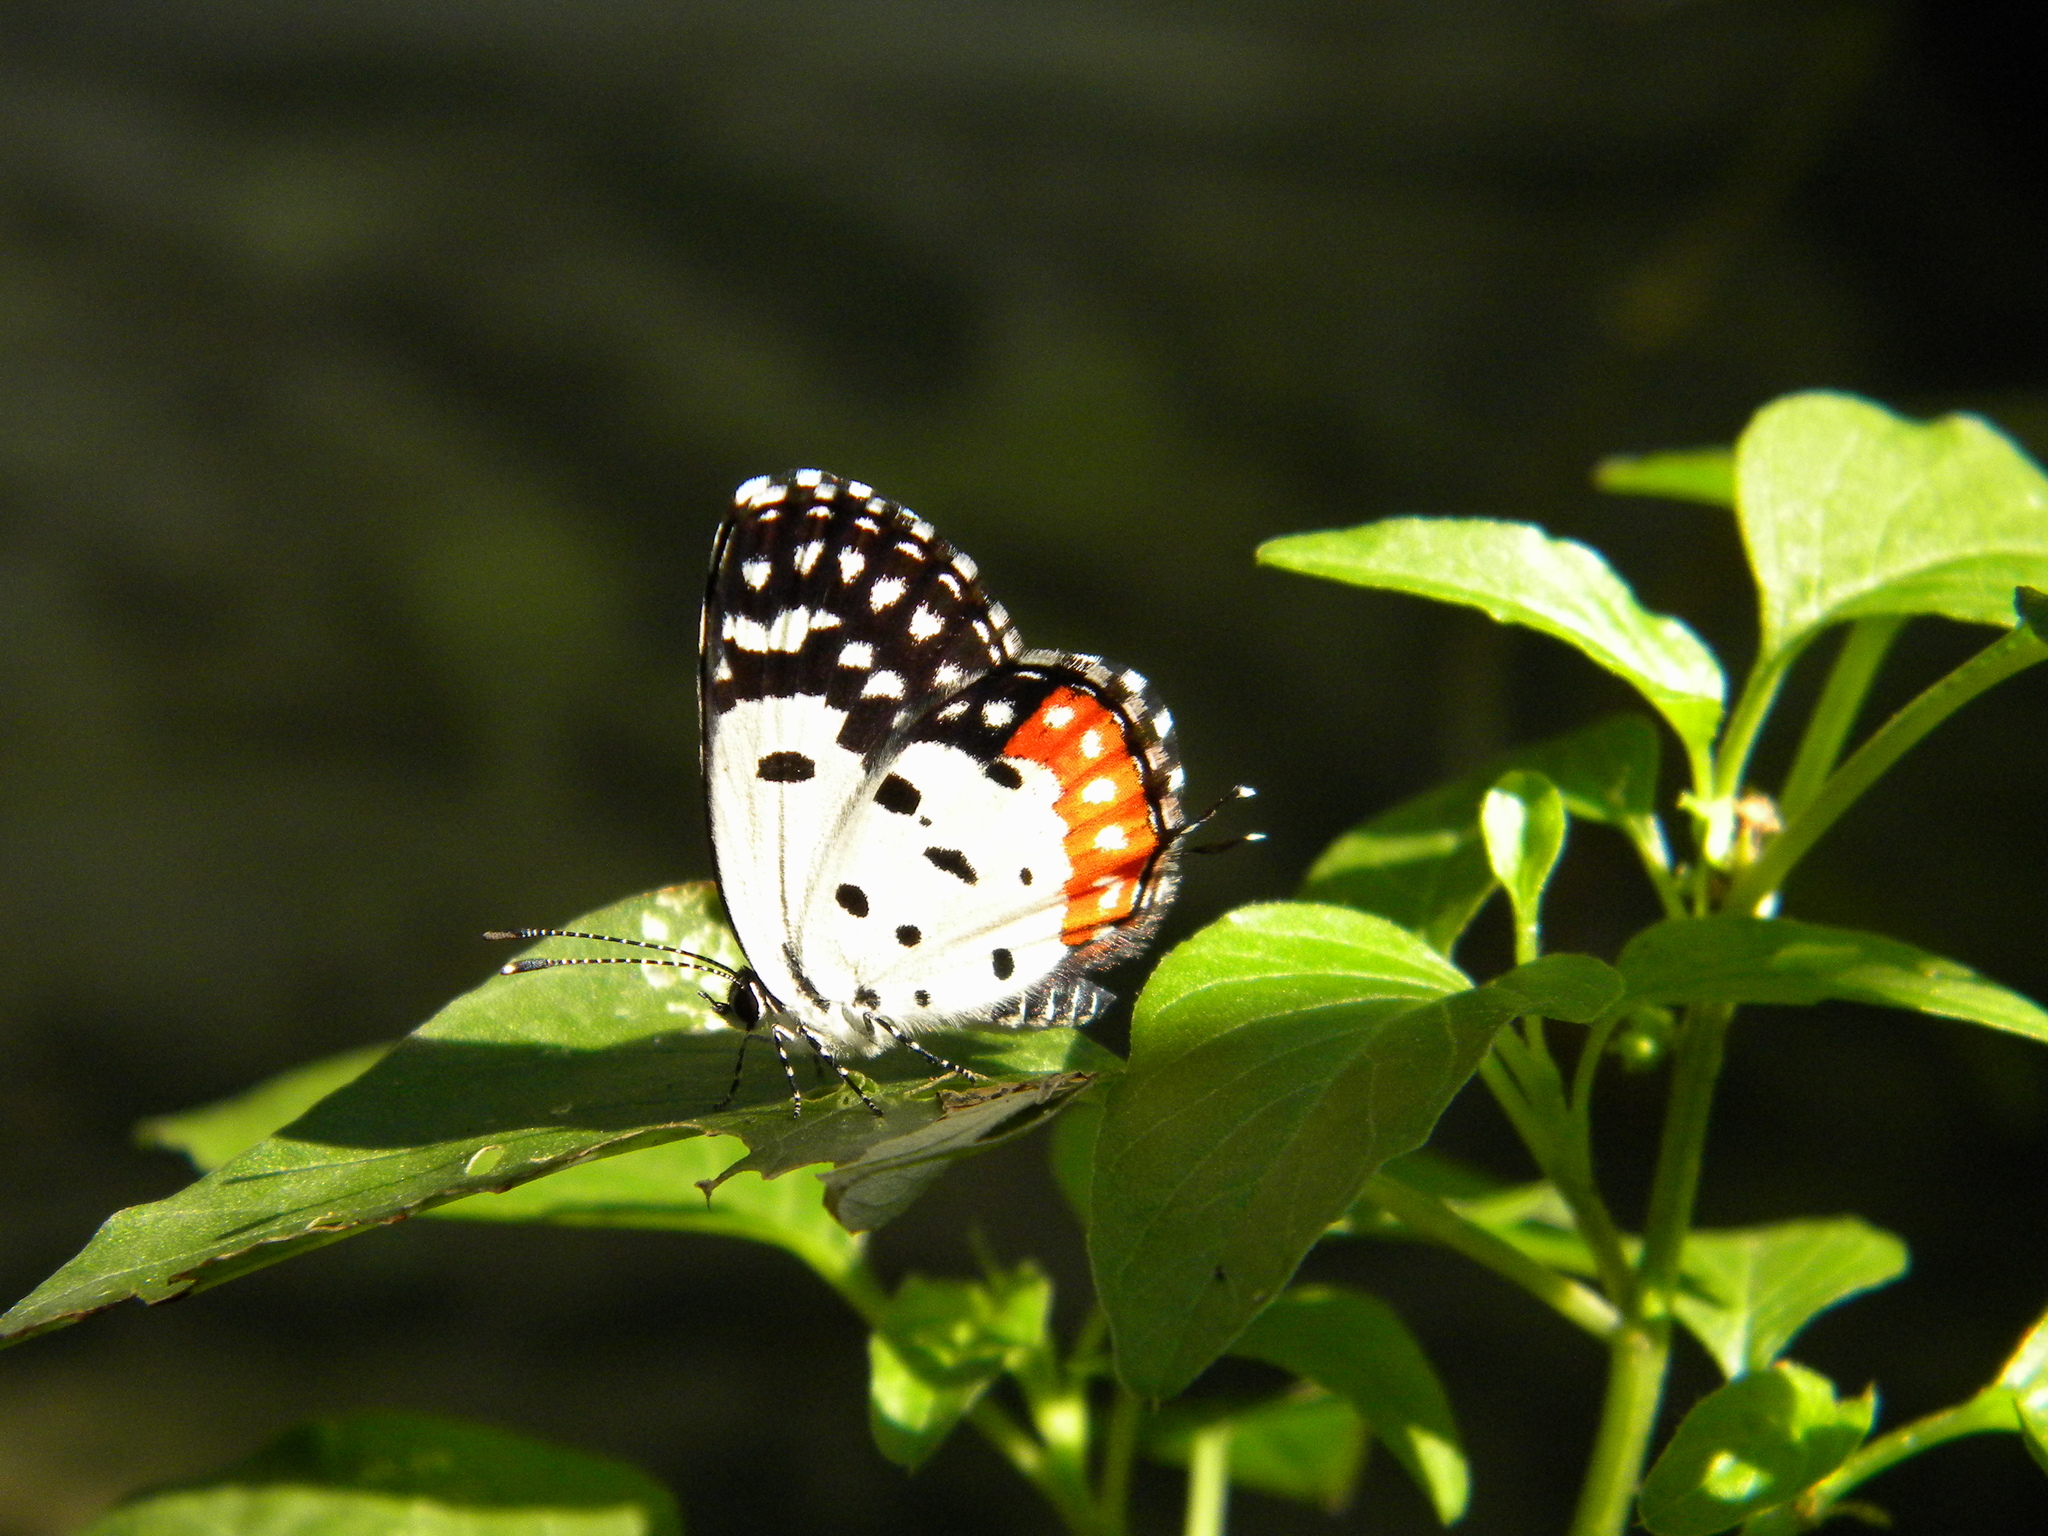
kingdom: Animalia
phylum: Arthropoda
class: Insecta
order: Lepidoptera
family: Lycaenidae
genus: Talicada
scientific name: Talicada nyseus
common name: Red pierrot
